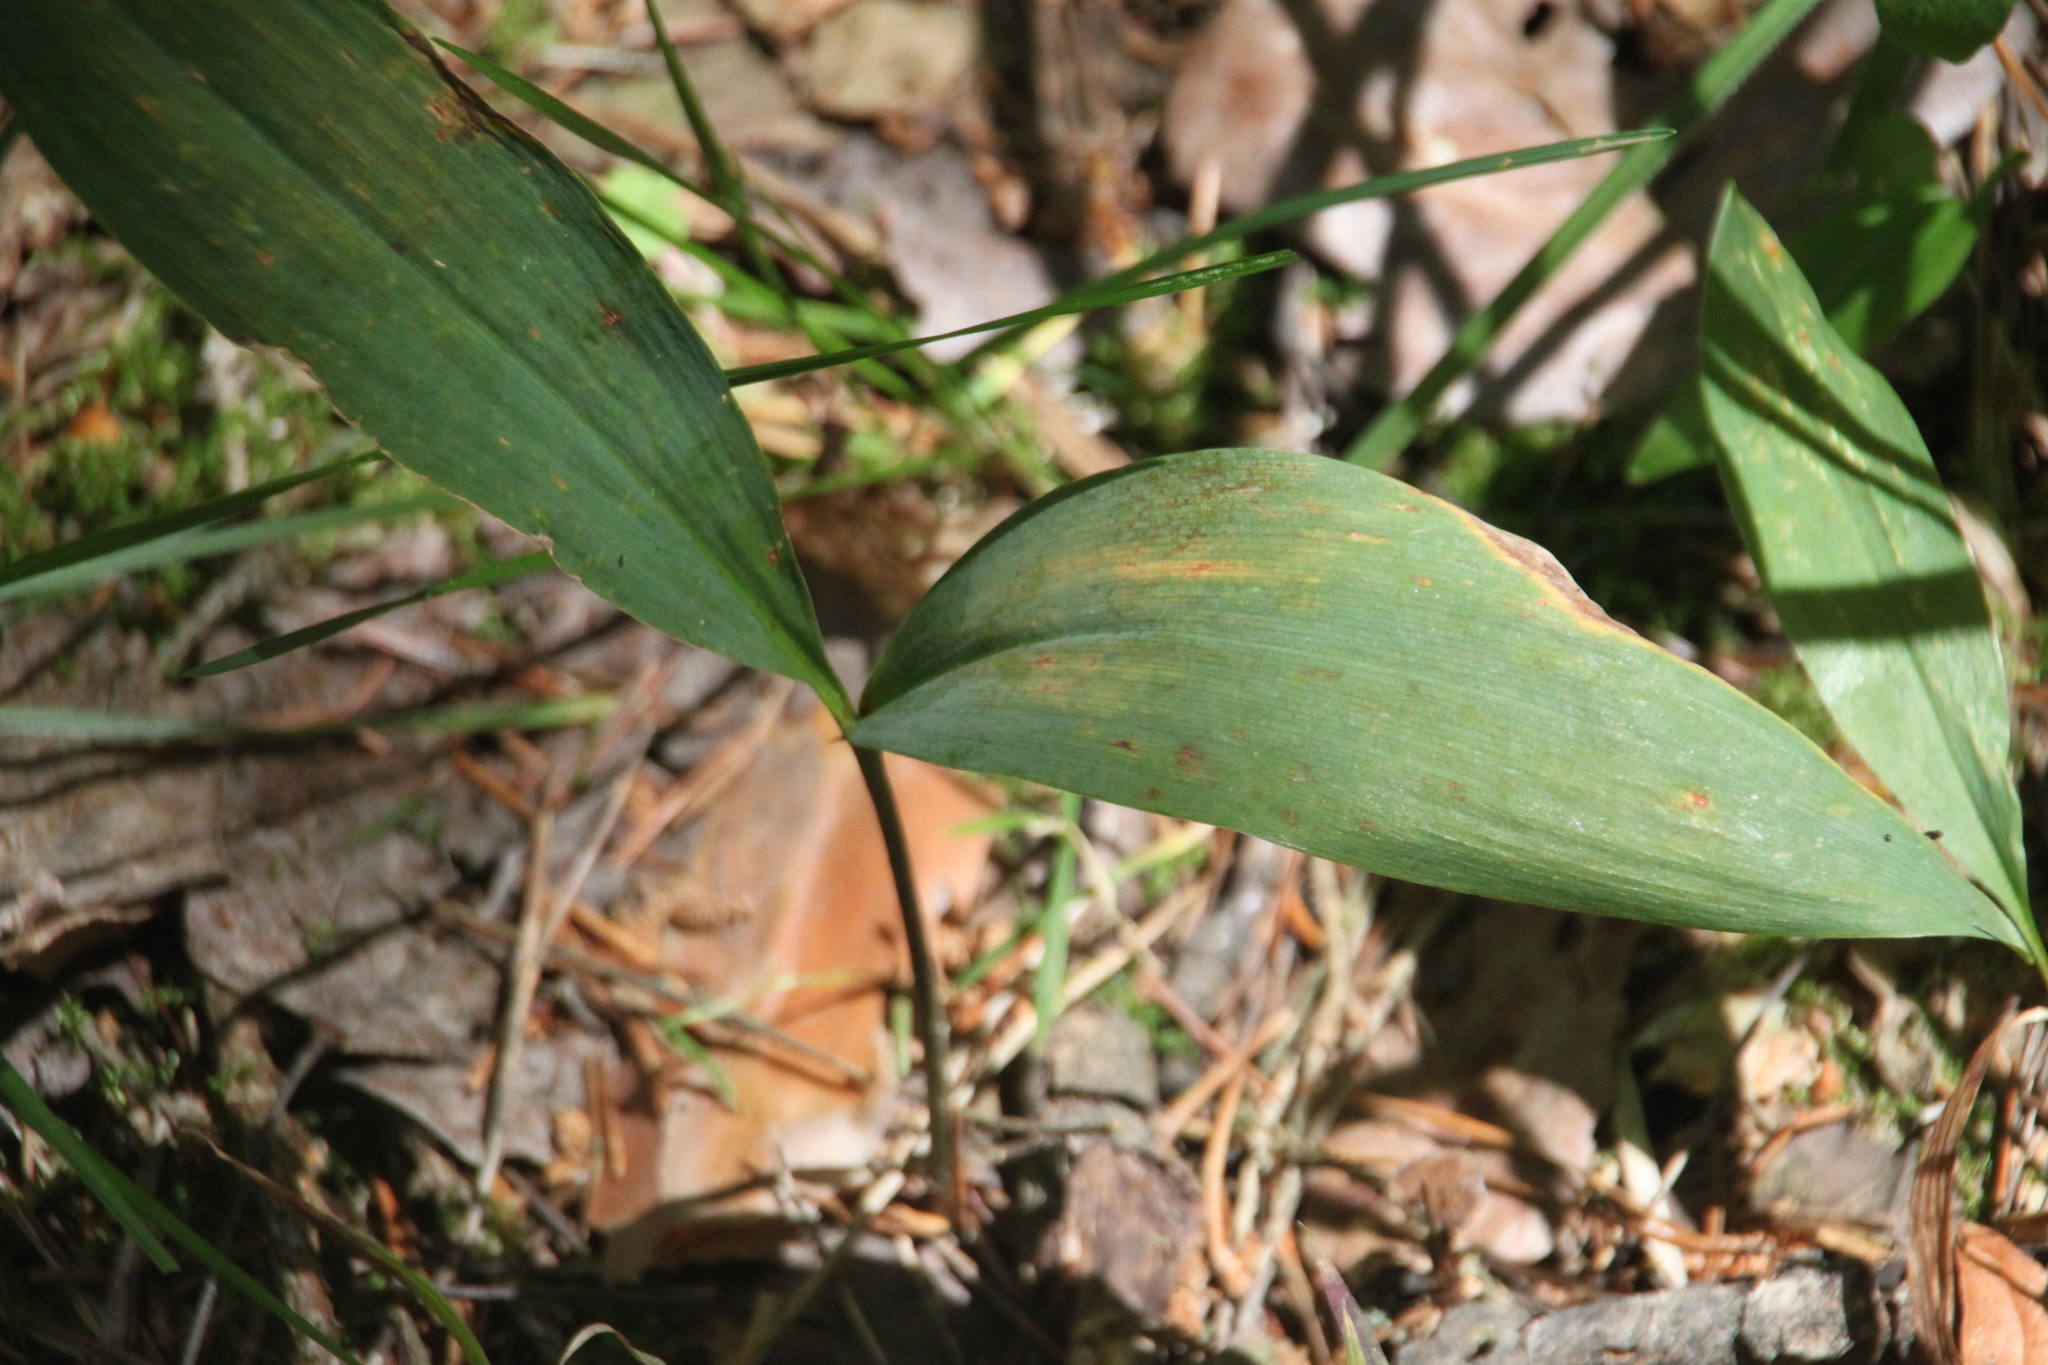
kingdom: Plantae
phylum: Tracheophyta
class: Liliopsida
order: Asparagales
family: Asparagaceae
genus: Convallaria
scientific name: Convallaria majalis
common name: Lily-of-the-valley
